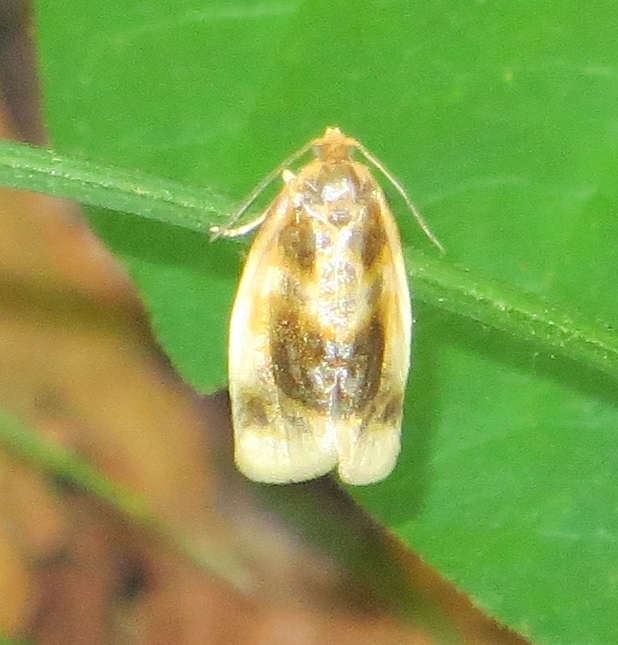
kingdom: Animalia
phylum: Arthropoda
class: Insecta
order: Lepidoptera
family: Tortricidae
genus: Clepsis
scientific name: Clepsis melaleucanus
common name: American apple tortrix
